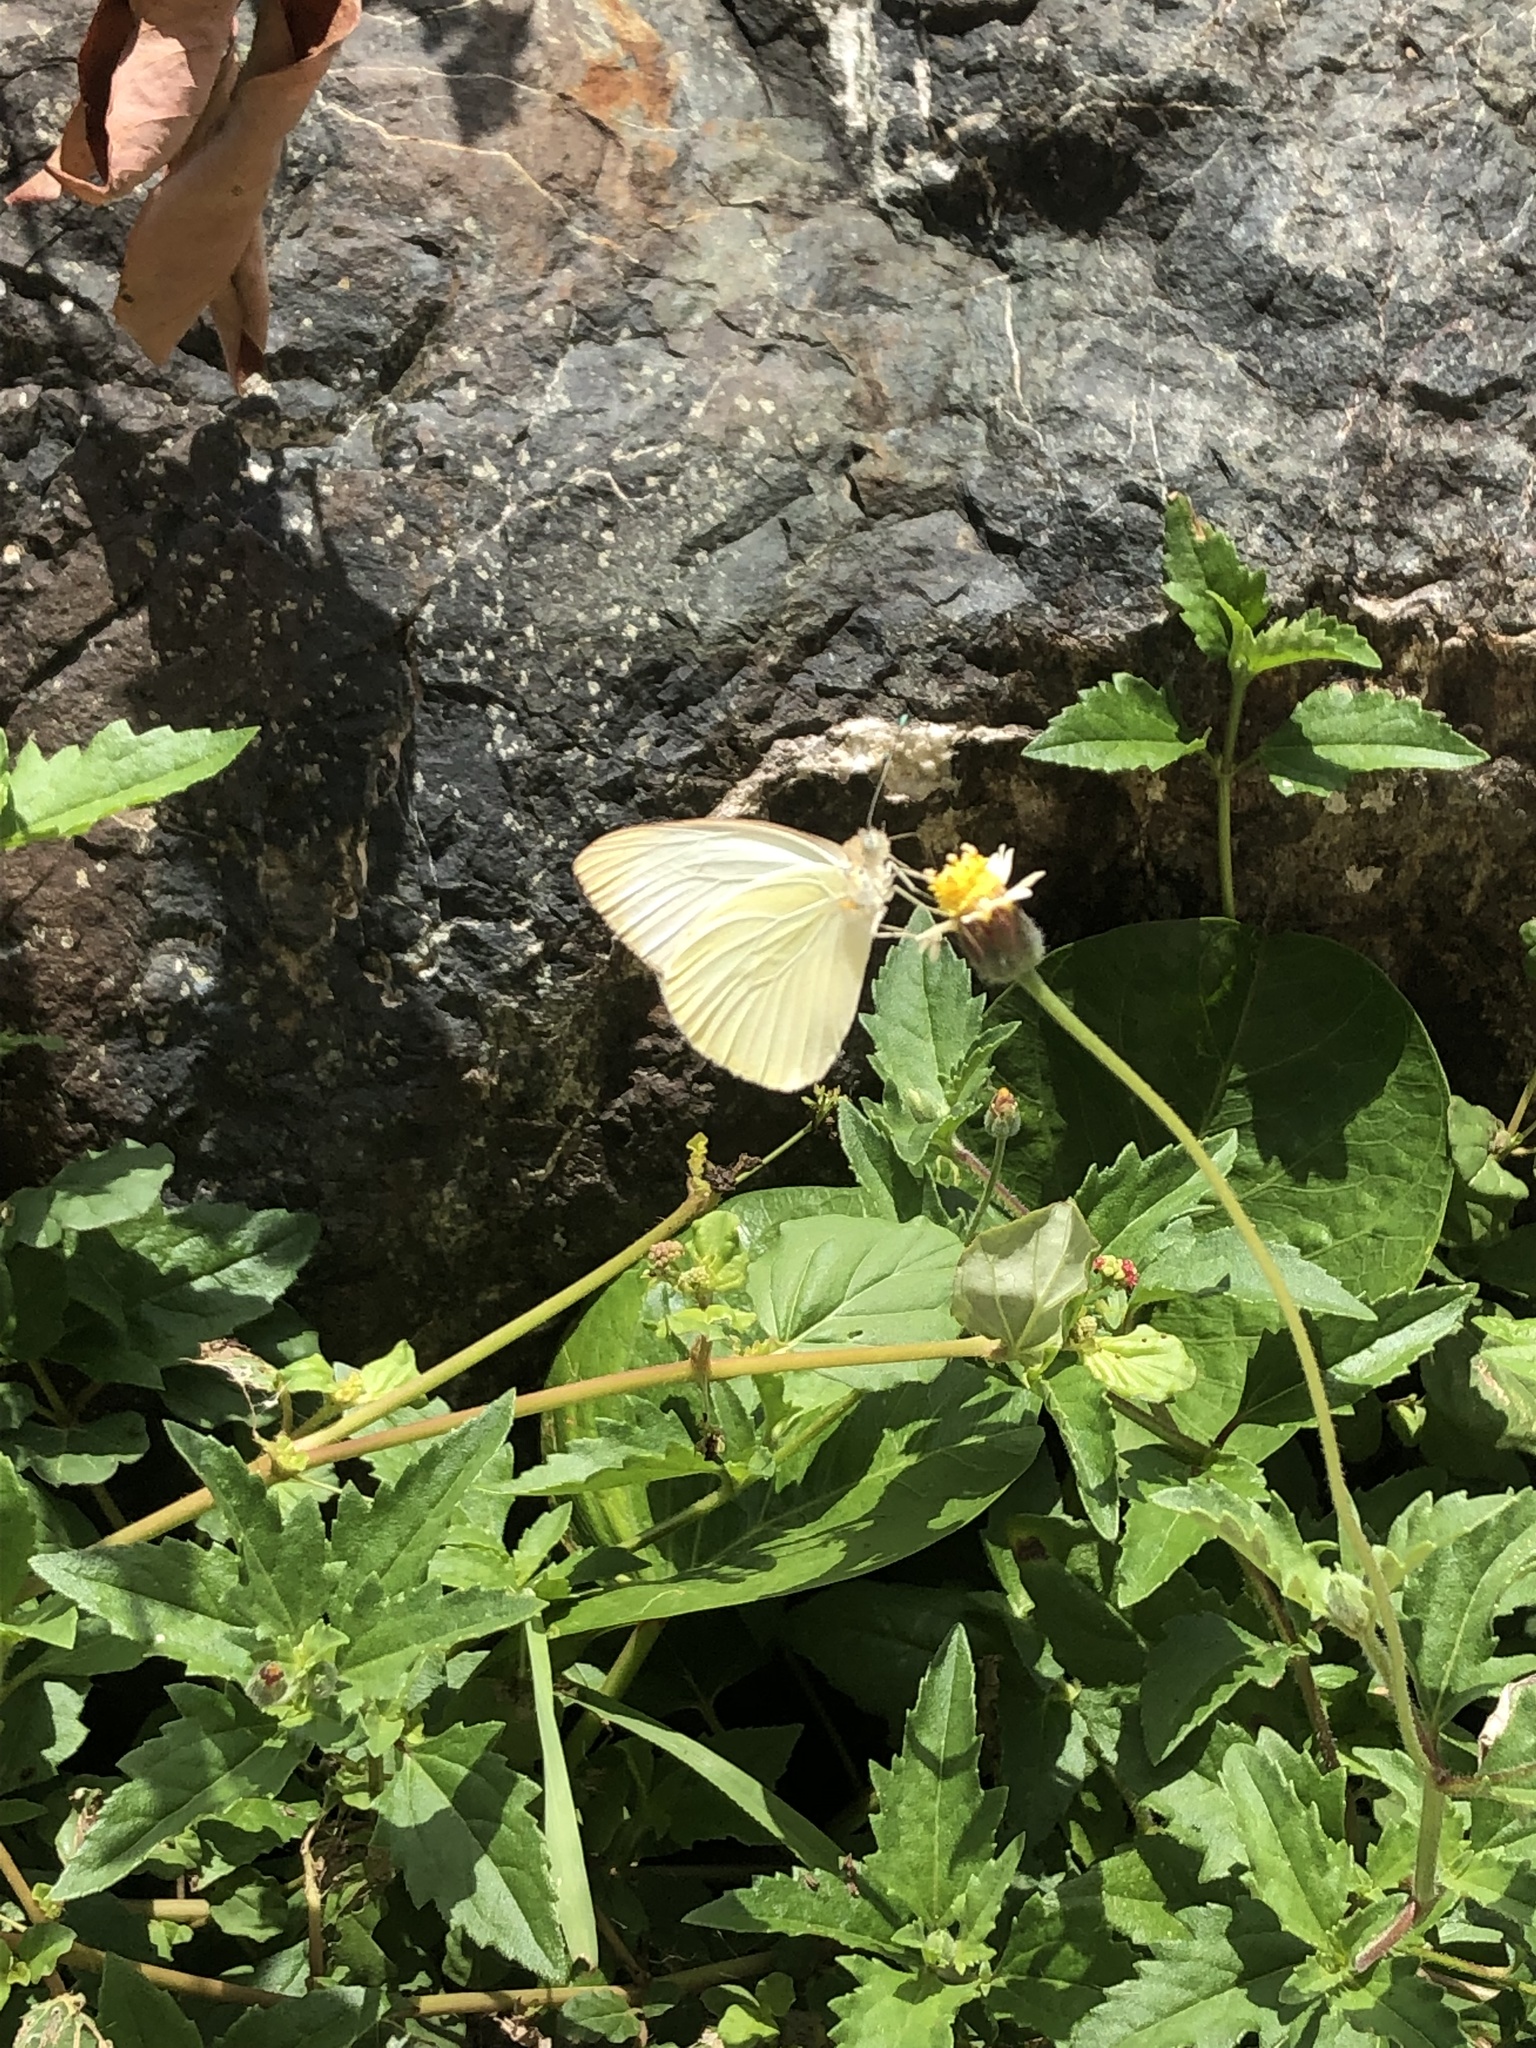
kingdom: Animalia
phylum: Arthropoda
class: Insecta
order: Lepidoptera
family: Pieridae
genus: Ascia
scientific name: Ascia monuste
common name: Great southern white
